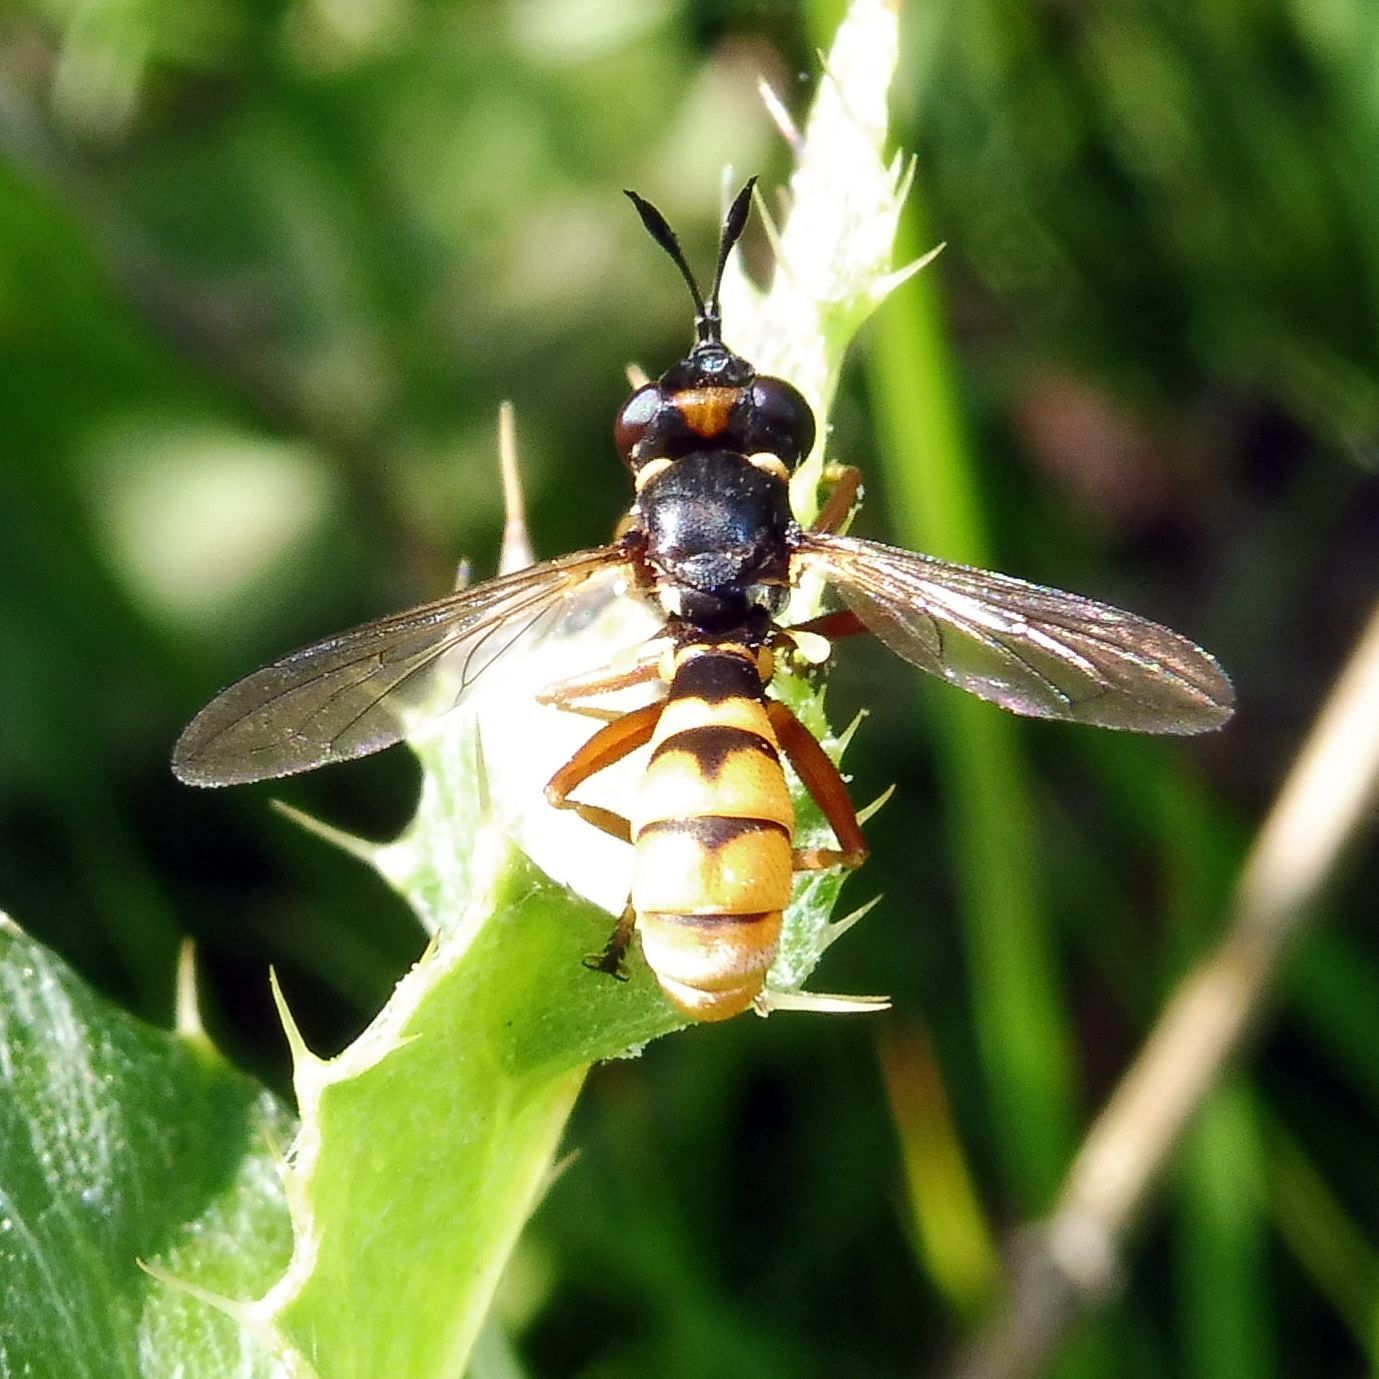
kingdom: Animalia
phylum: Arthropoda
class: Insecta
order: Diptera
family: Conopidae
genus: Conops
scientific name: Conops quadrifasciatus
